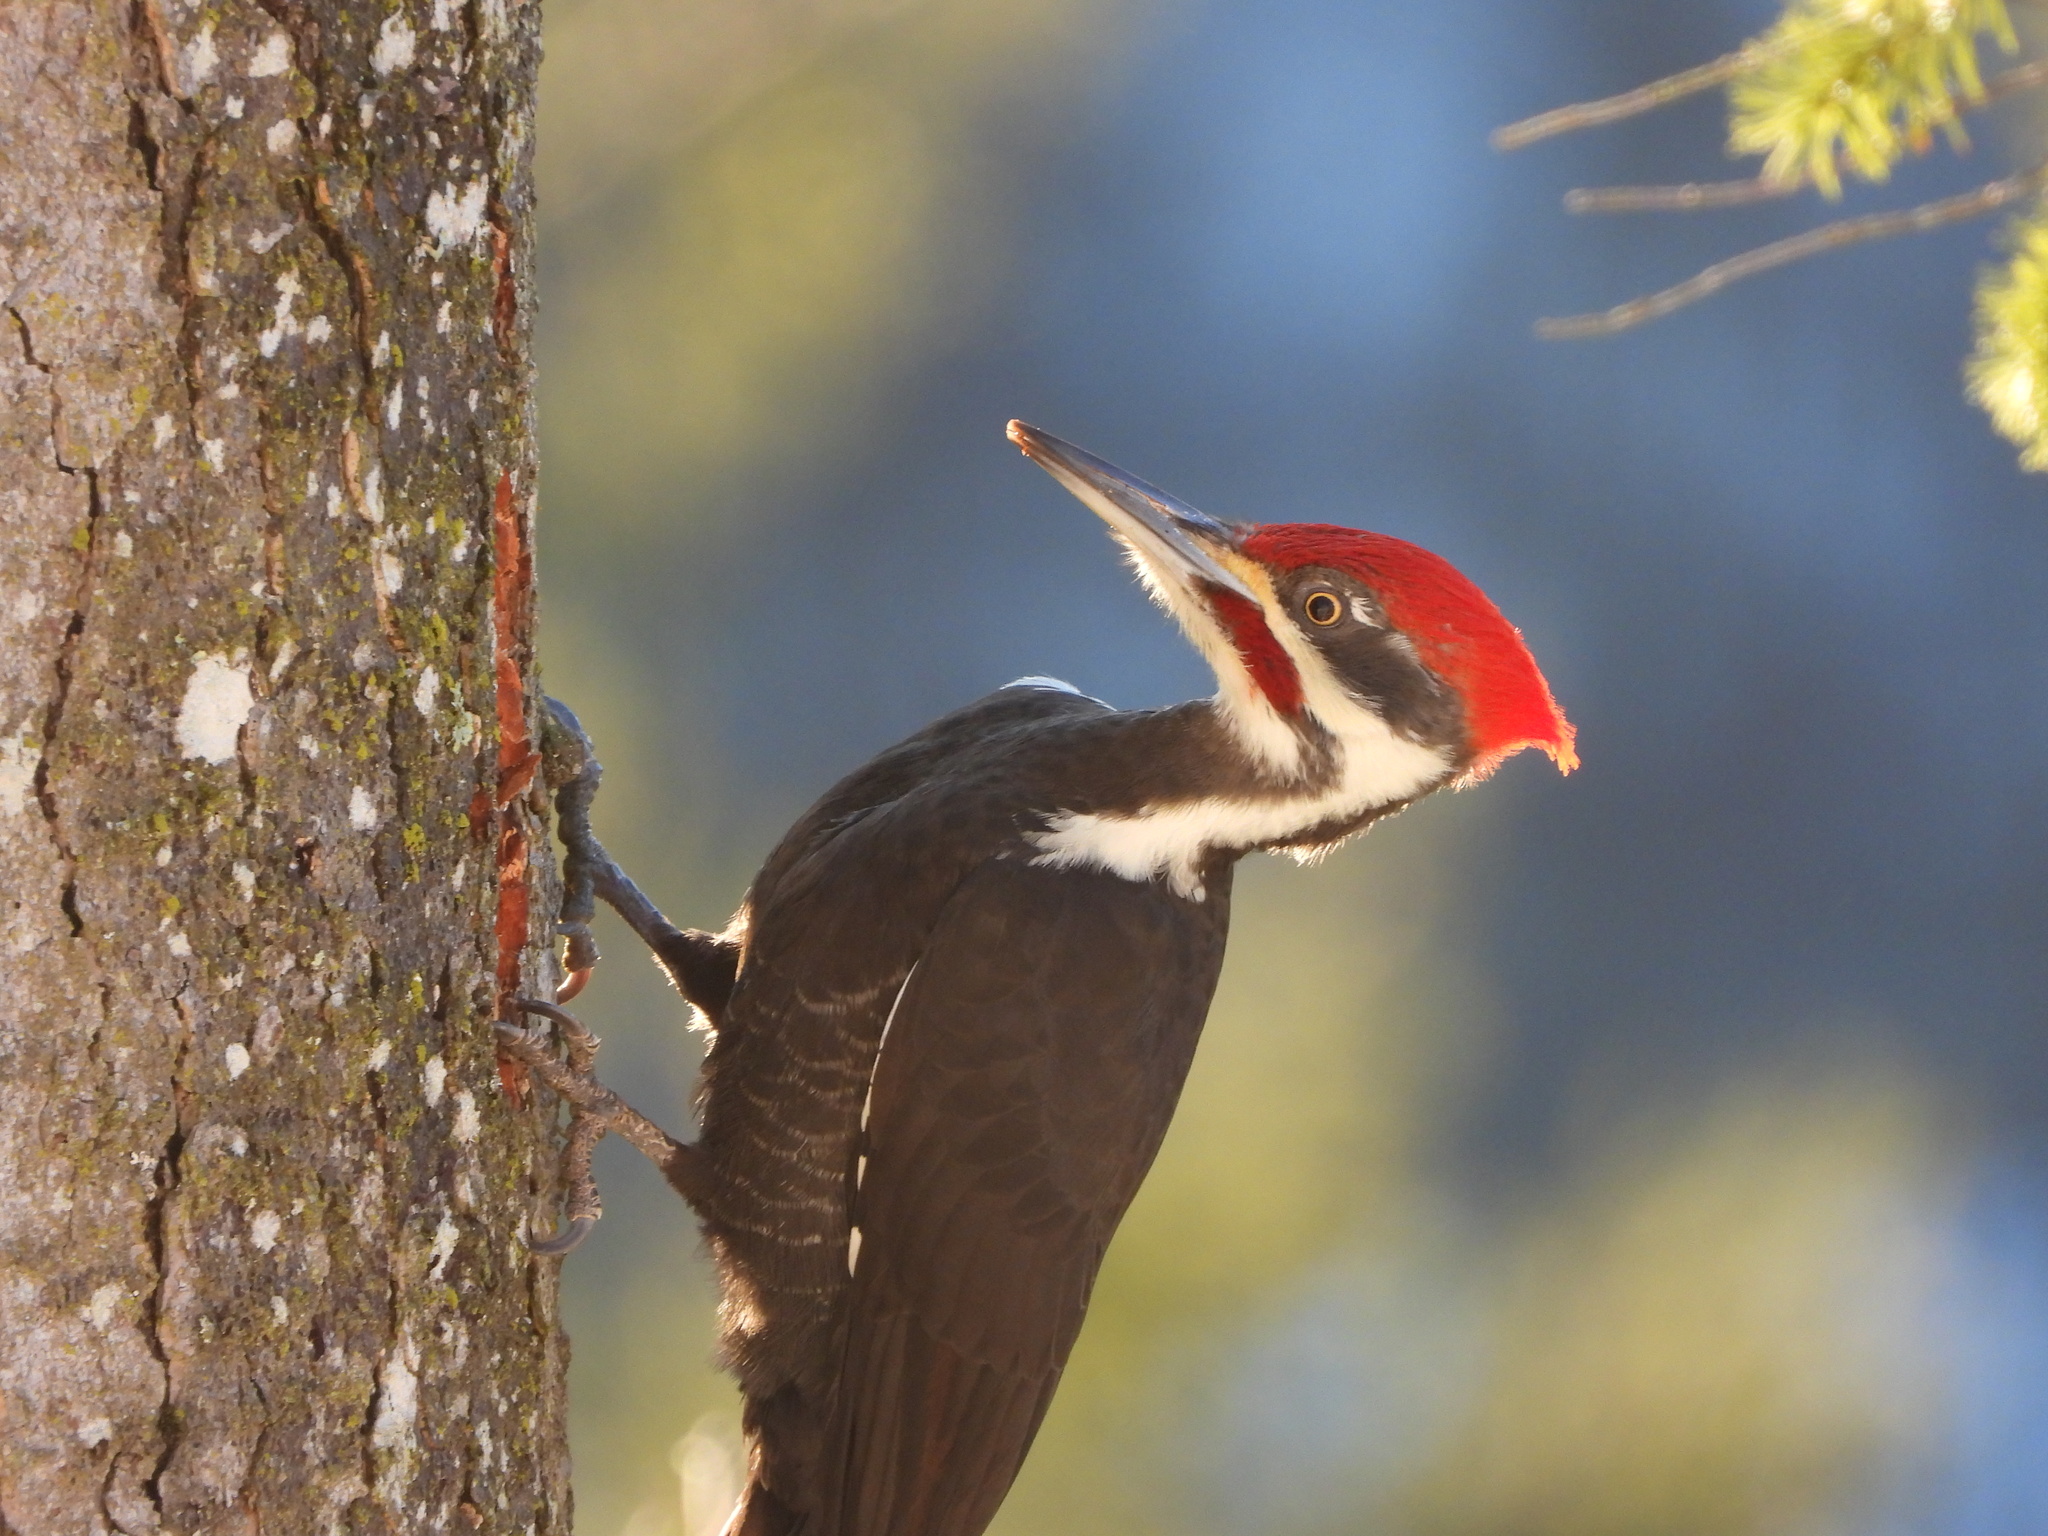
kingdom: Animalia
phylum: Chordata
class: Aves
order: Piciformes
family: Picidae
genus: Dryocopus
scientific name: Dryocopus pileatus
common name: Pileated woodpecker
